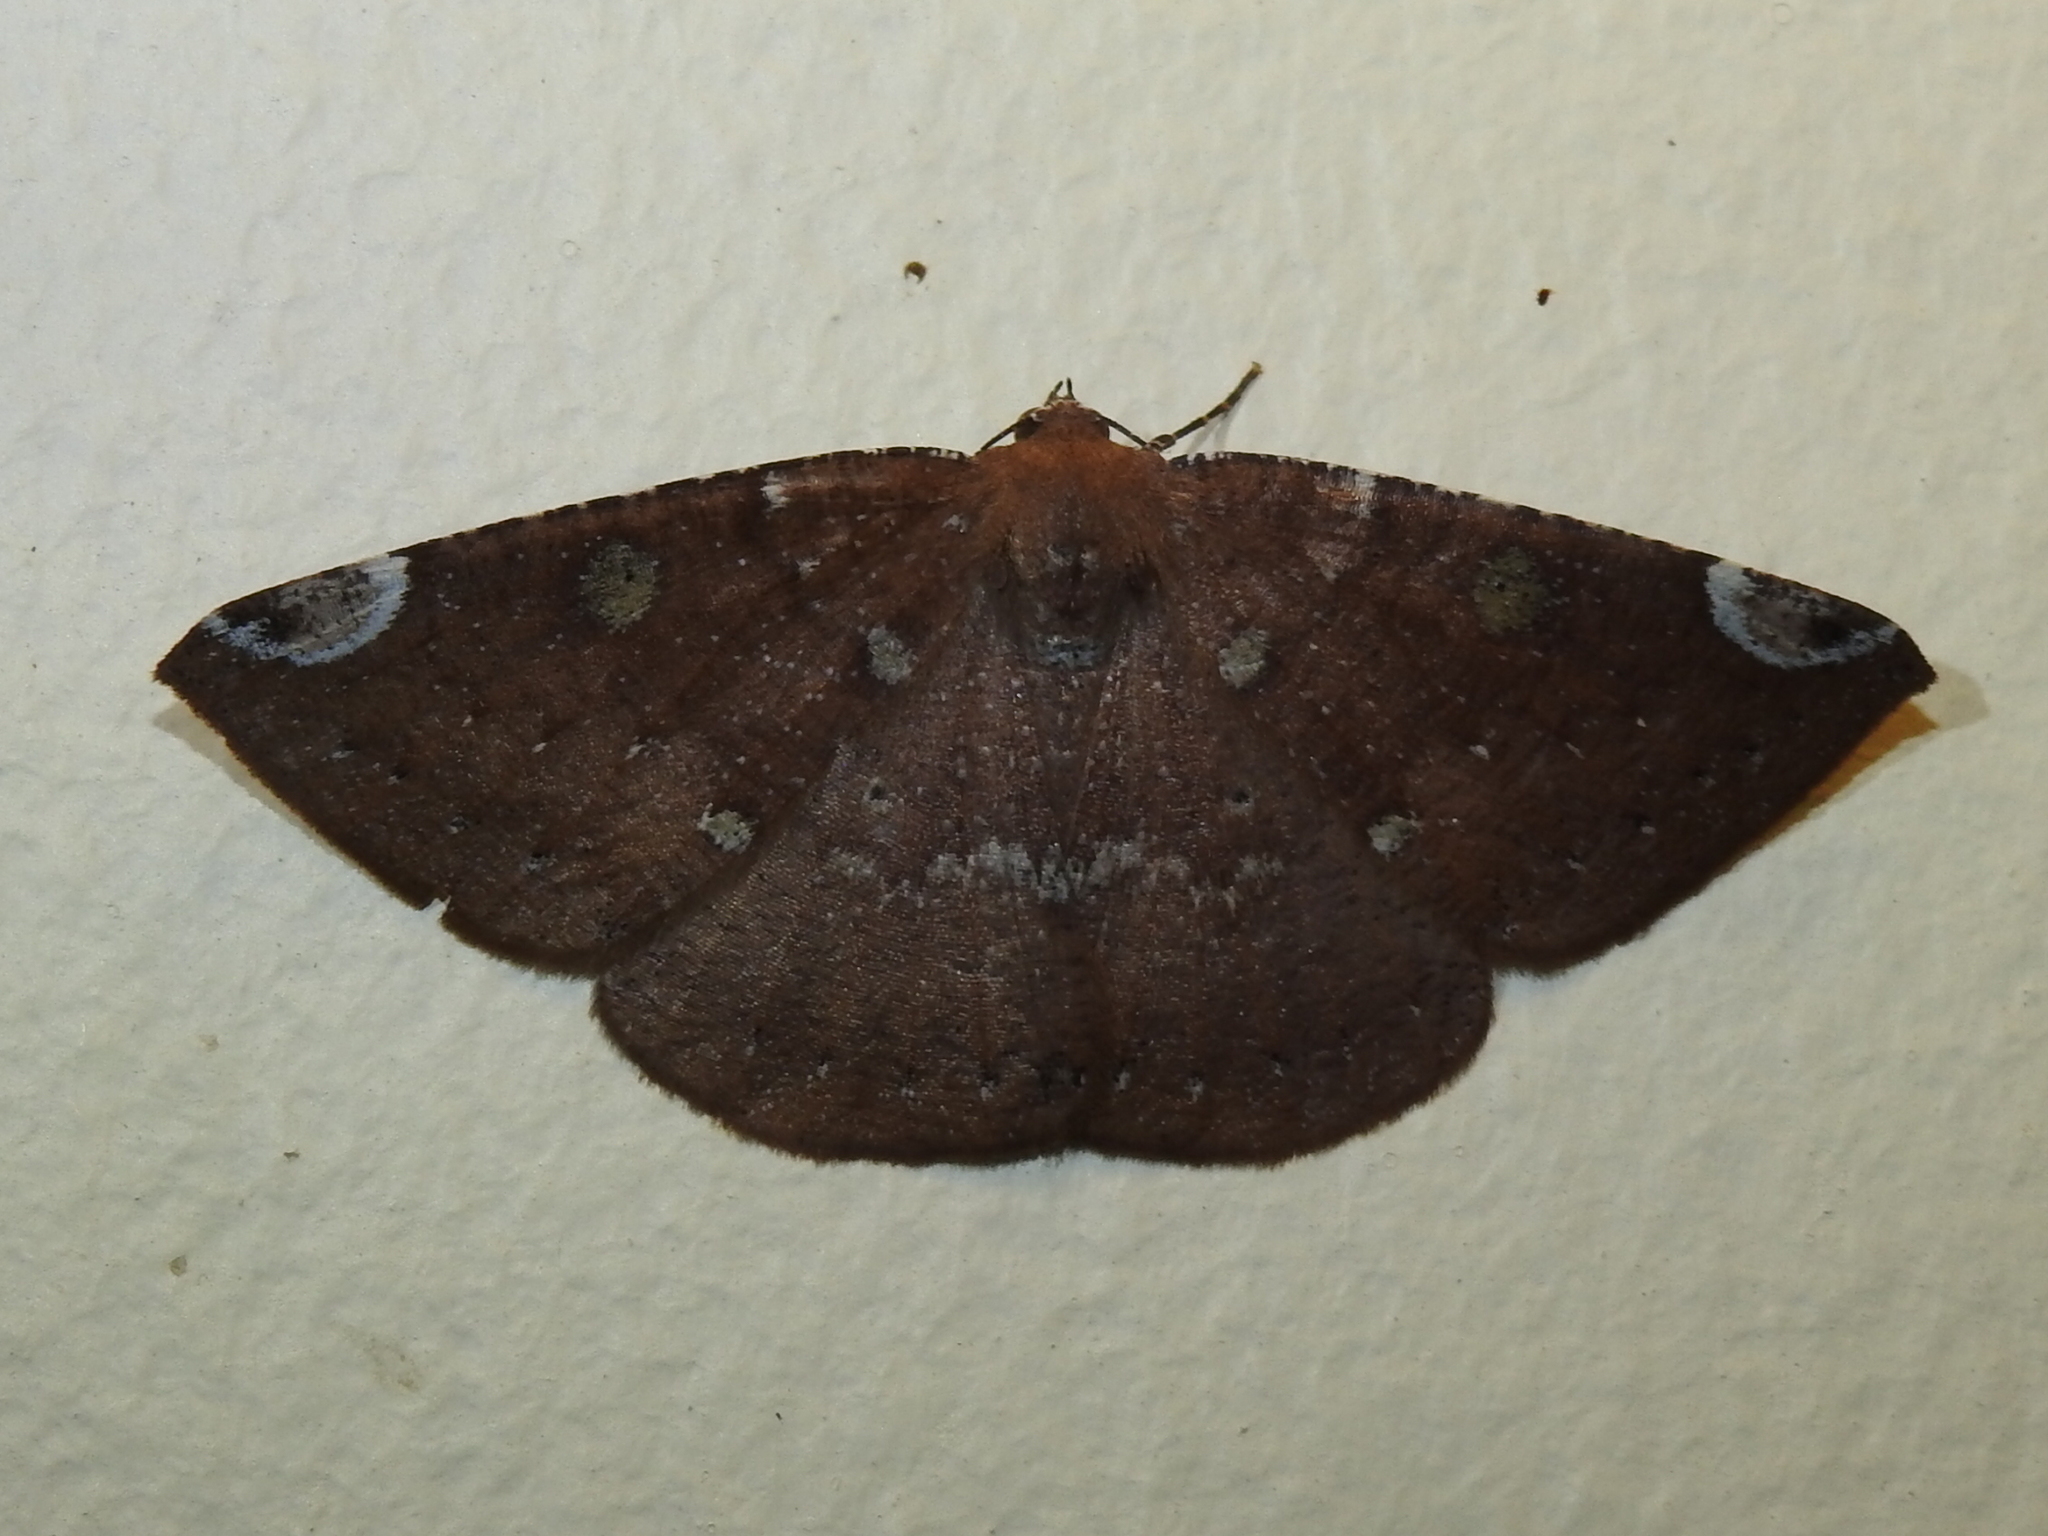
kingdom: Animalia
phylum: Arthropoda
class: Insecta
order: Lepidoptera
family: Geometridae
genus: Herbita
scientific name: Herbita amicaria
